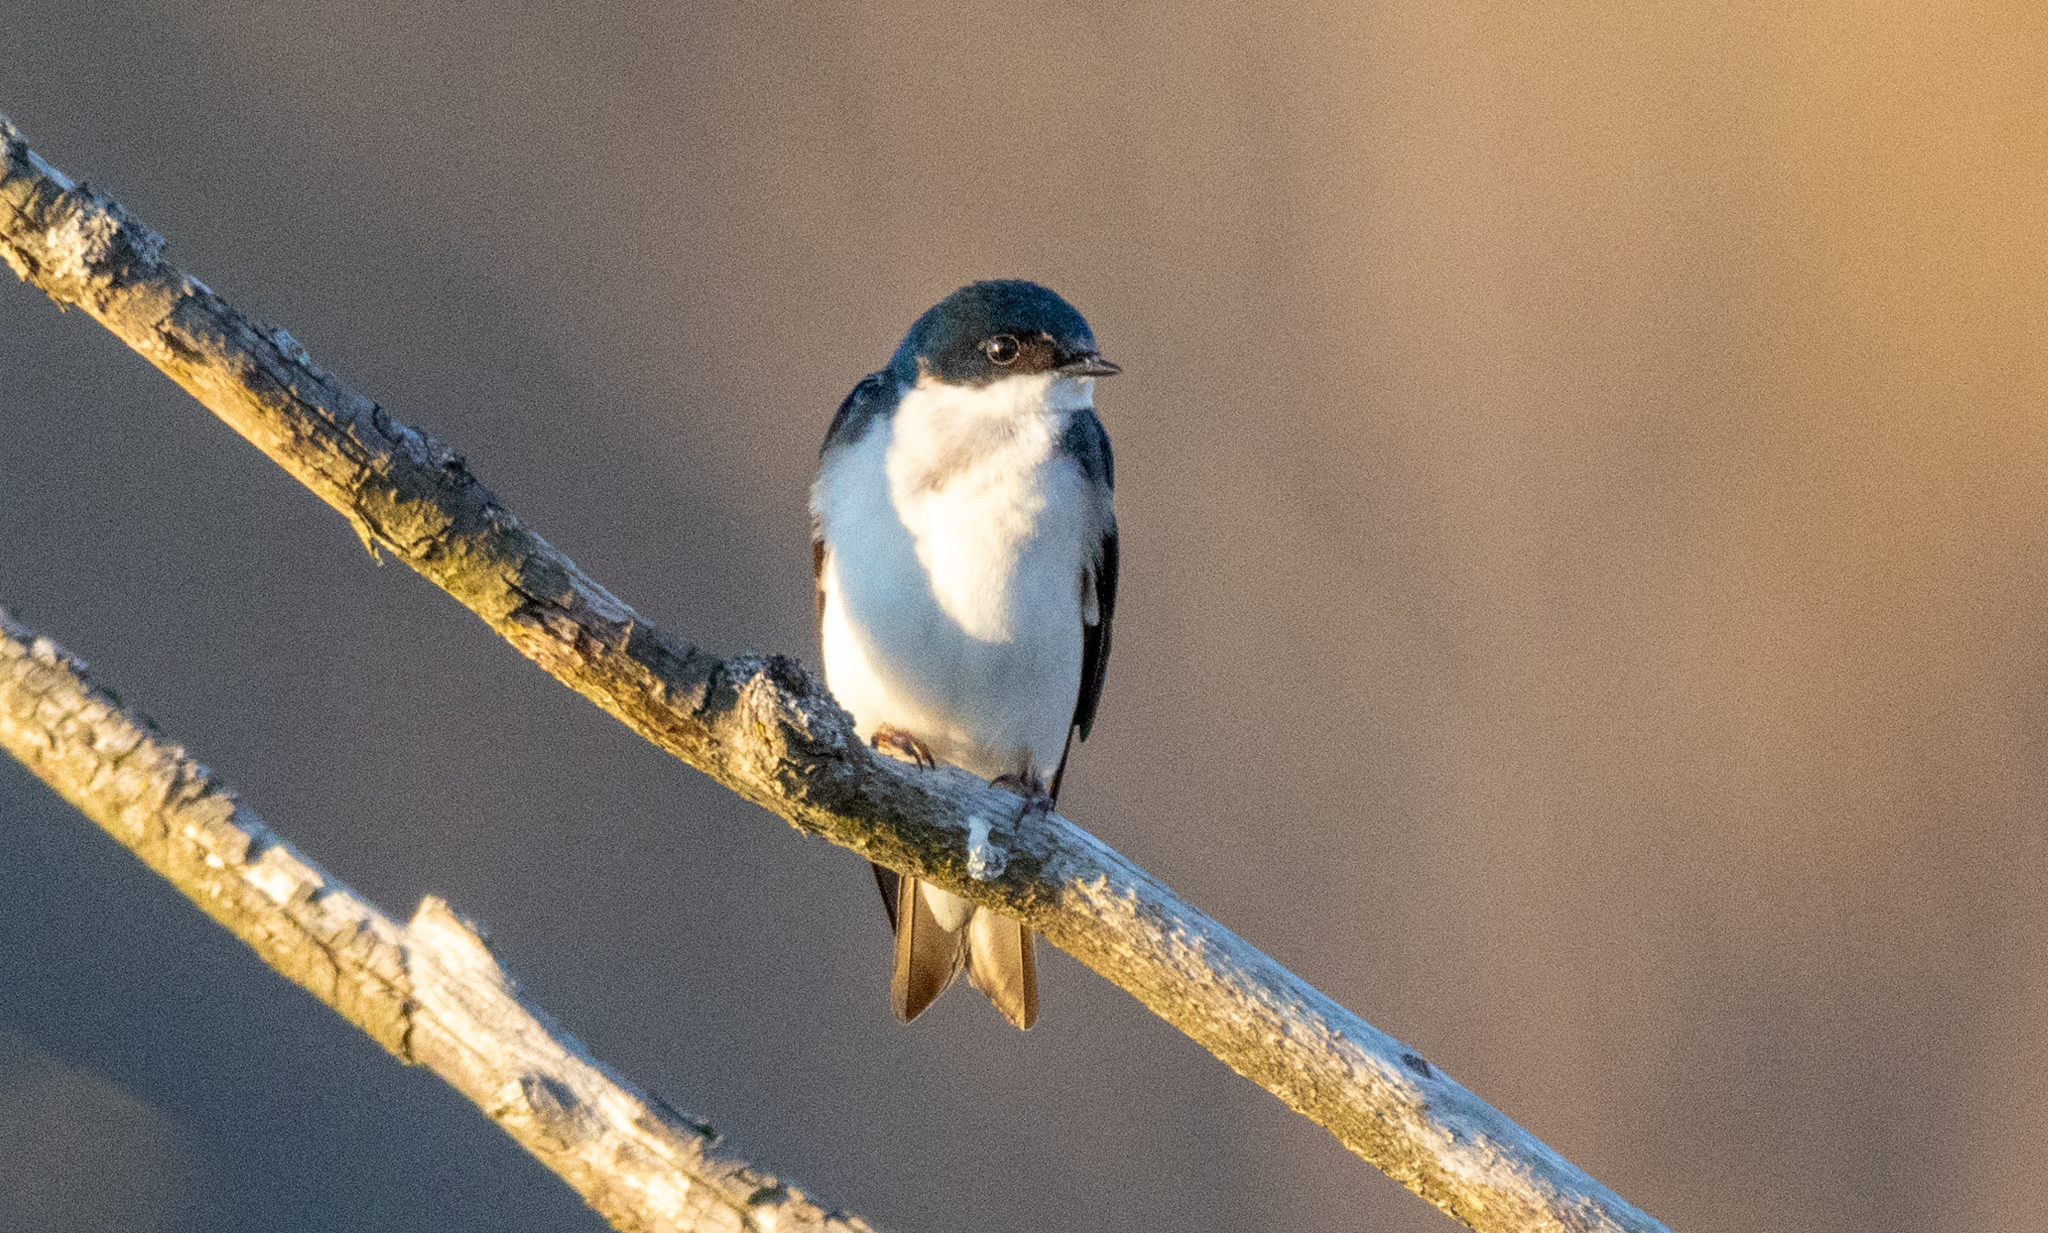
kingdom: Animalia
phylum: Chordata
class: Aves
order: Passeriformes
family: Hirundinidae
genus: Tachycineta
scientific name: Tachycineta bicolor
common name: Tree swallow
